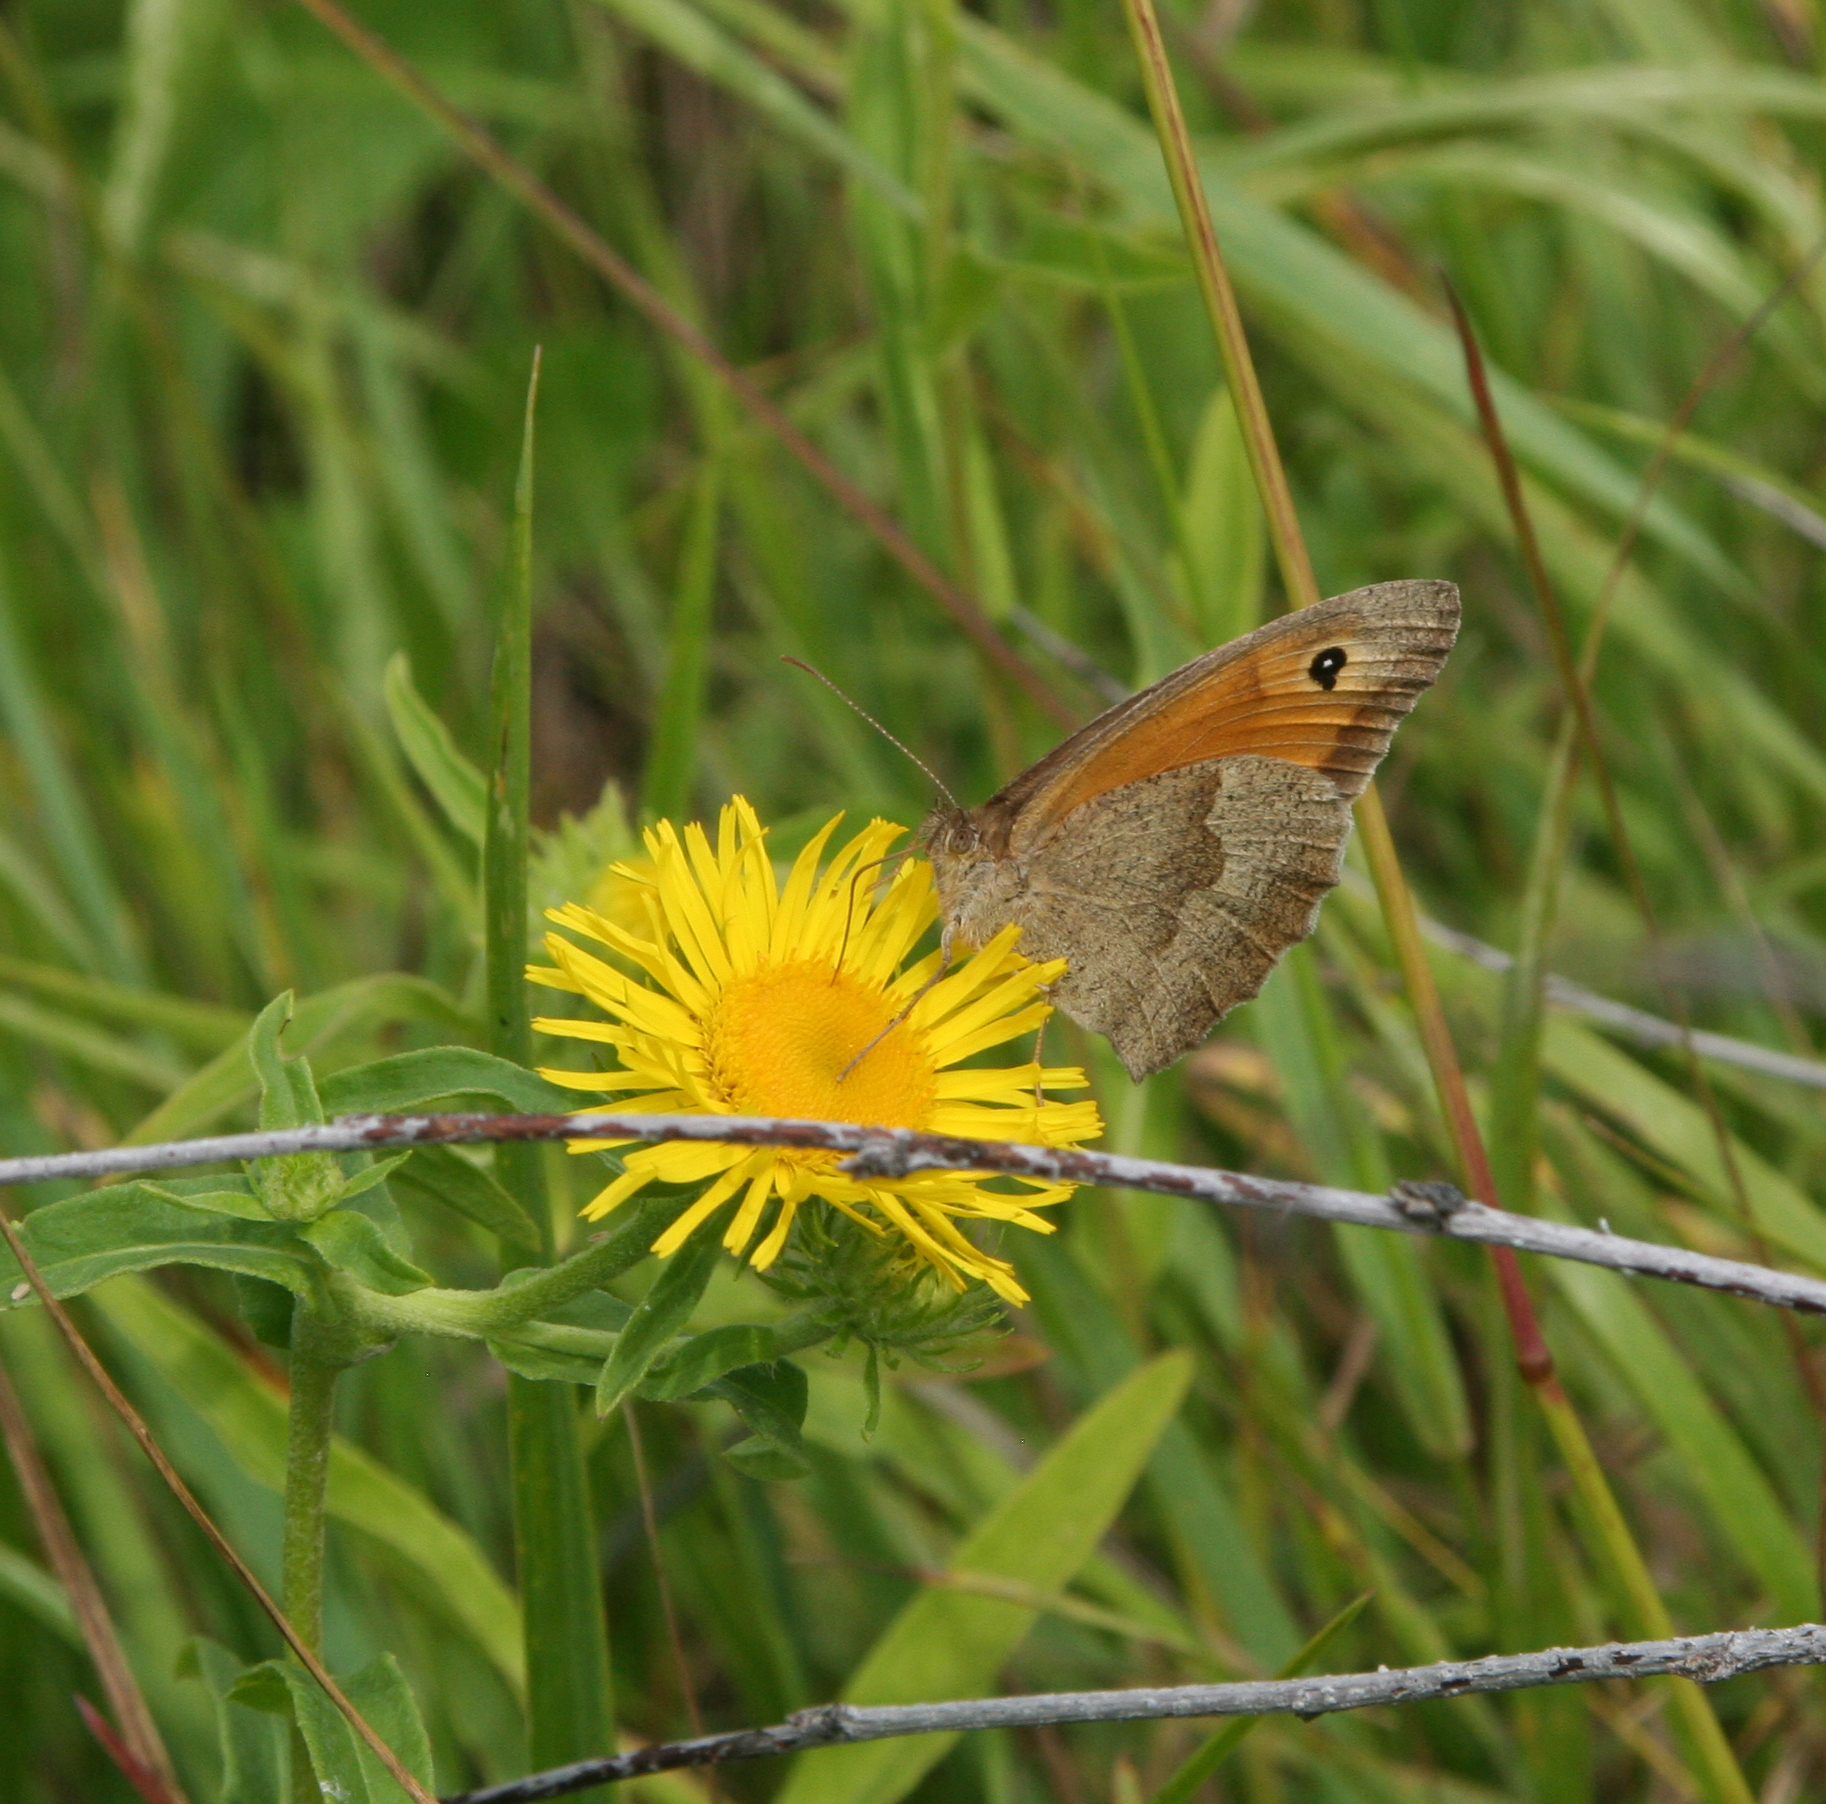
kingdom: Plantae
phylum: Tracheophyta
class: Magnoliopsida
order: Asterales
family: Asteraceae
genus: Pentanema
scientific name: Pentanema britannicum
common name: British elecampane
